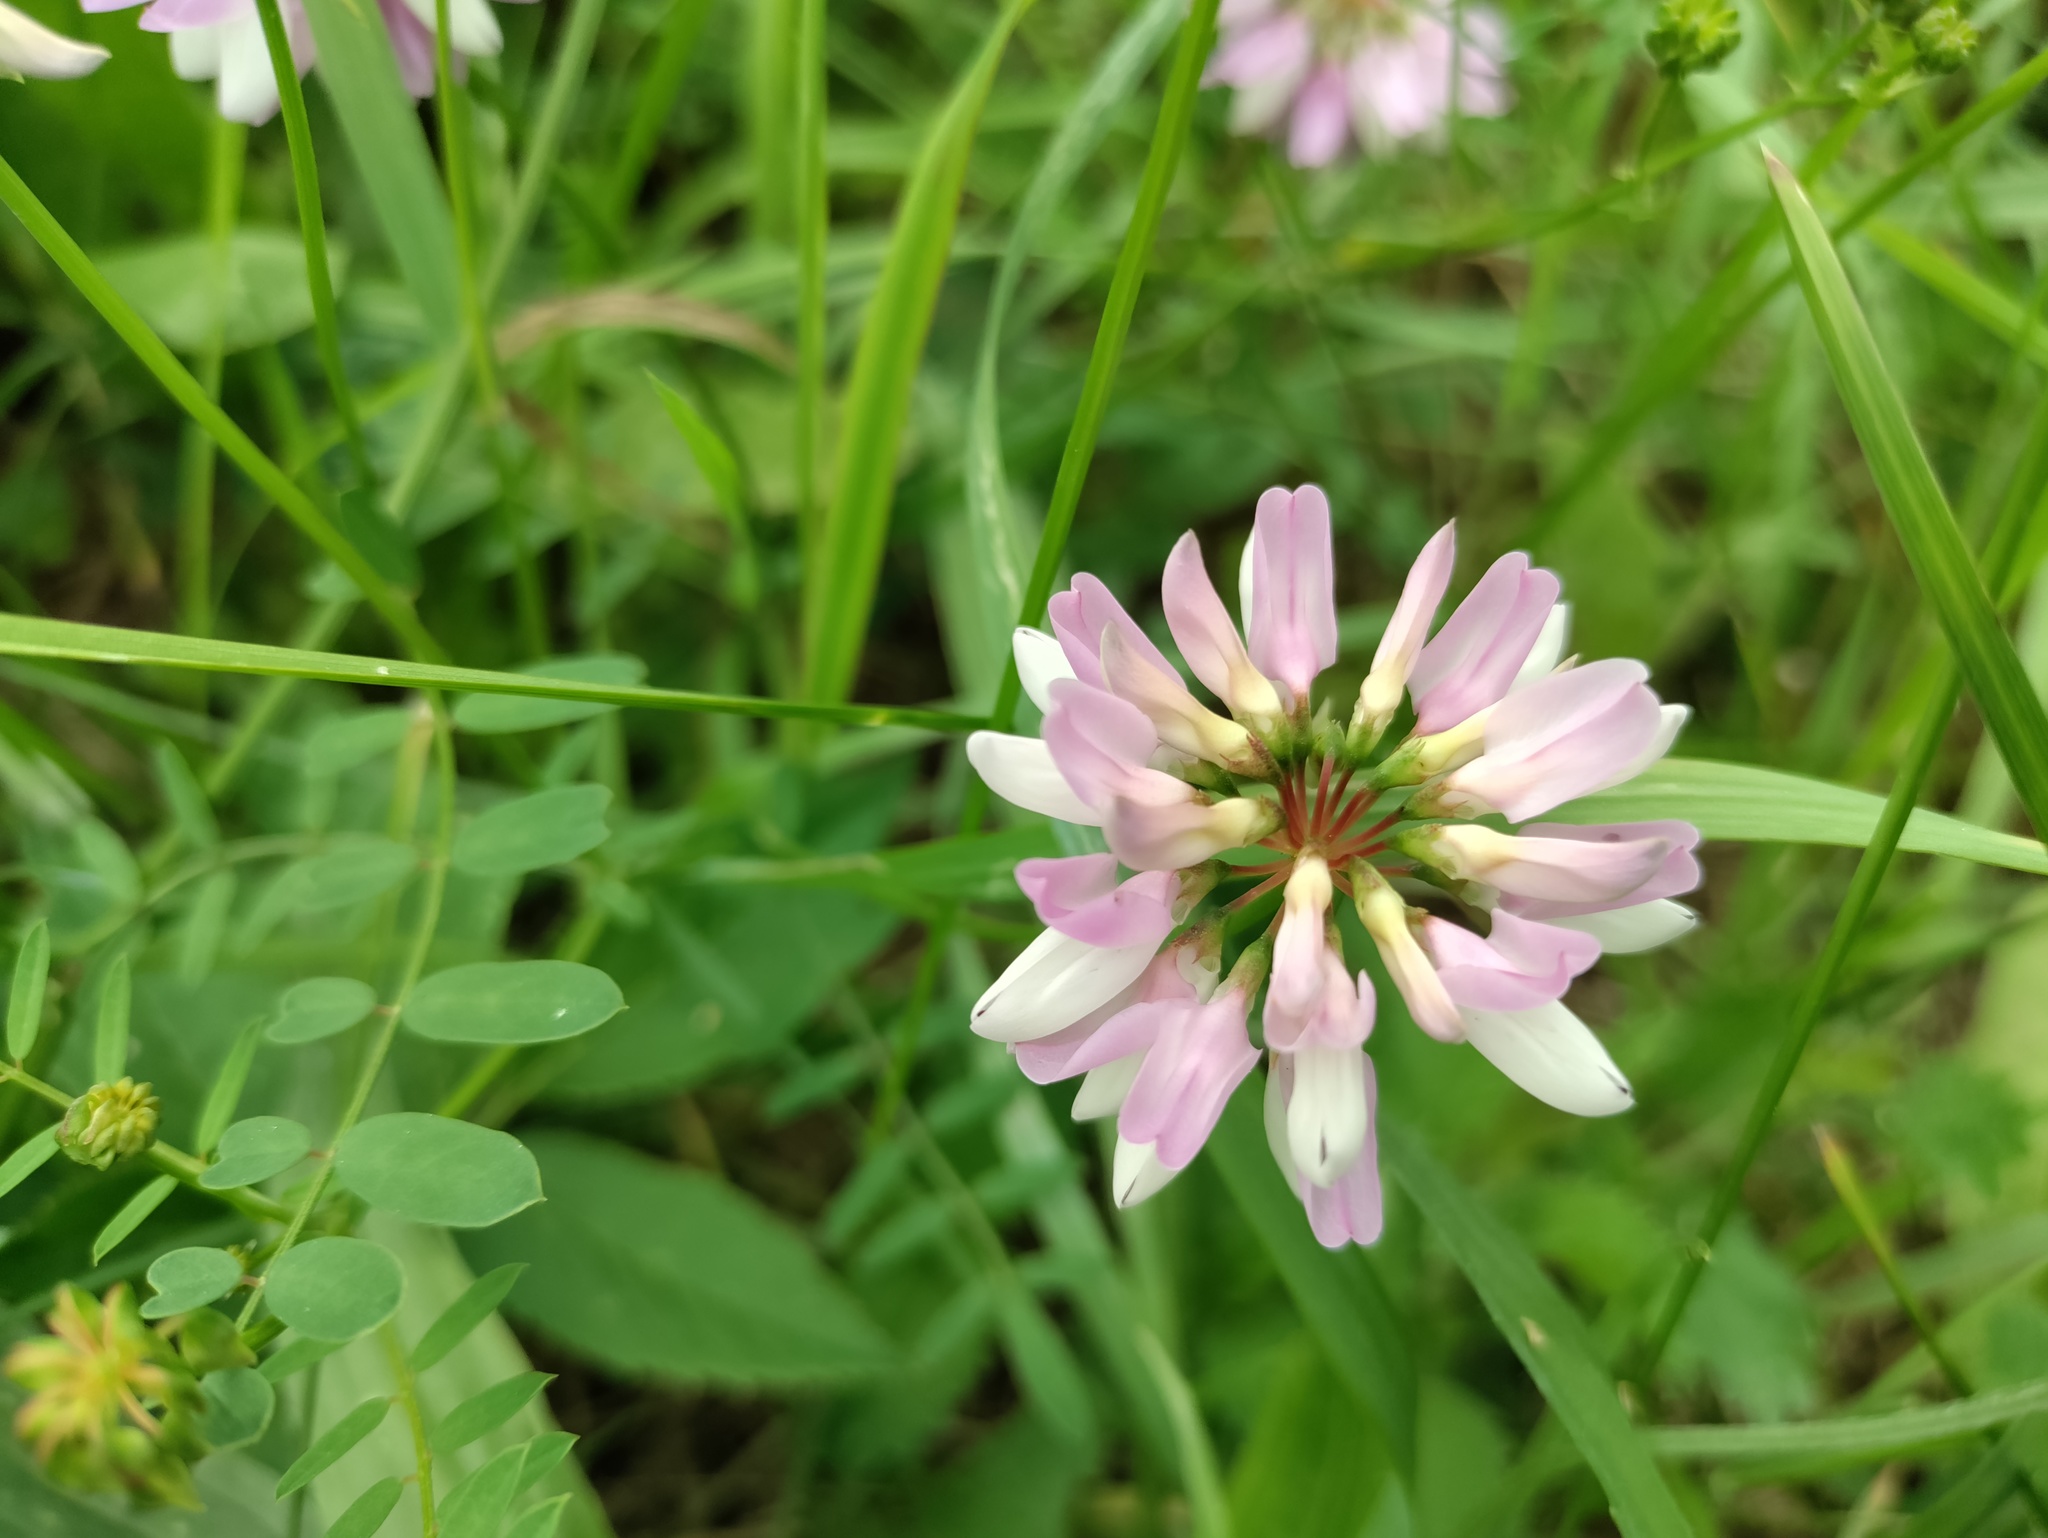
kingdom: Plantae
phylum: Tracheophyta
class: Magnoliopsida
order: Fabales
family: Fabaceae
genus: Coronilla
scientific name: Coronilla varia
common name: Crownvetch
